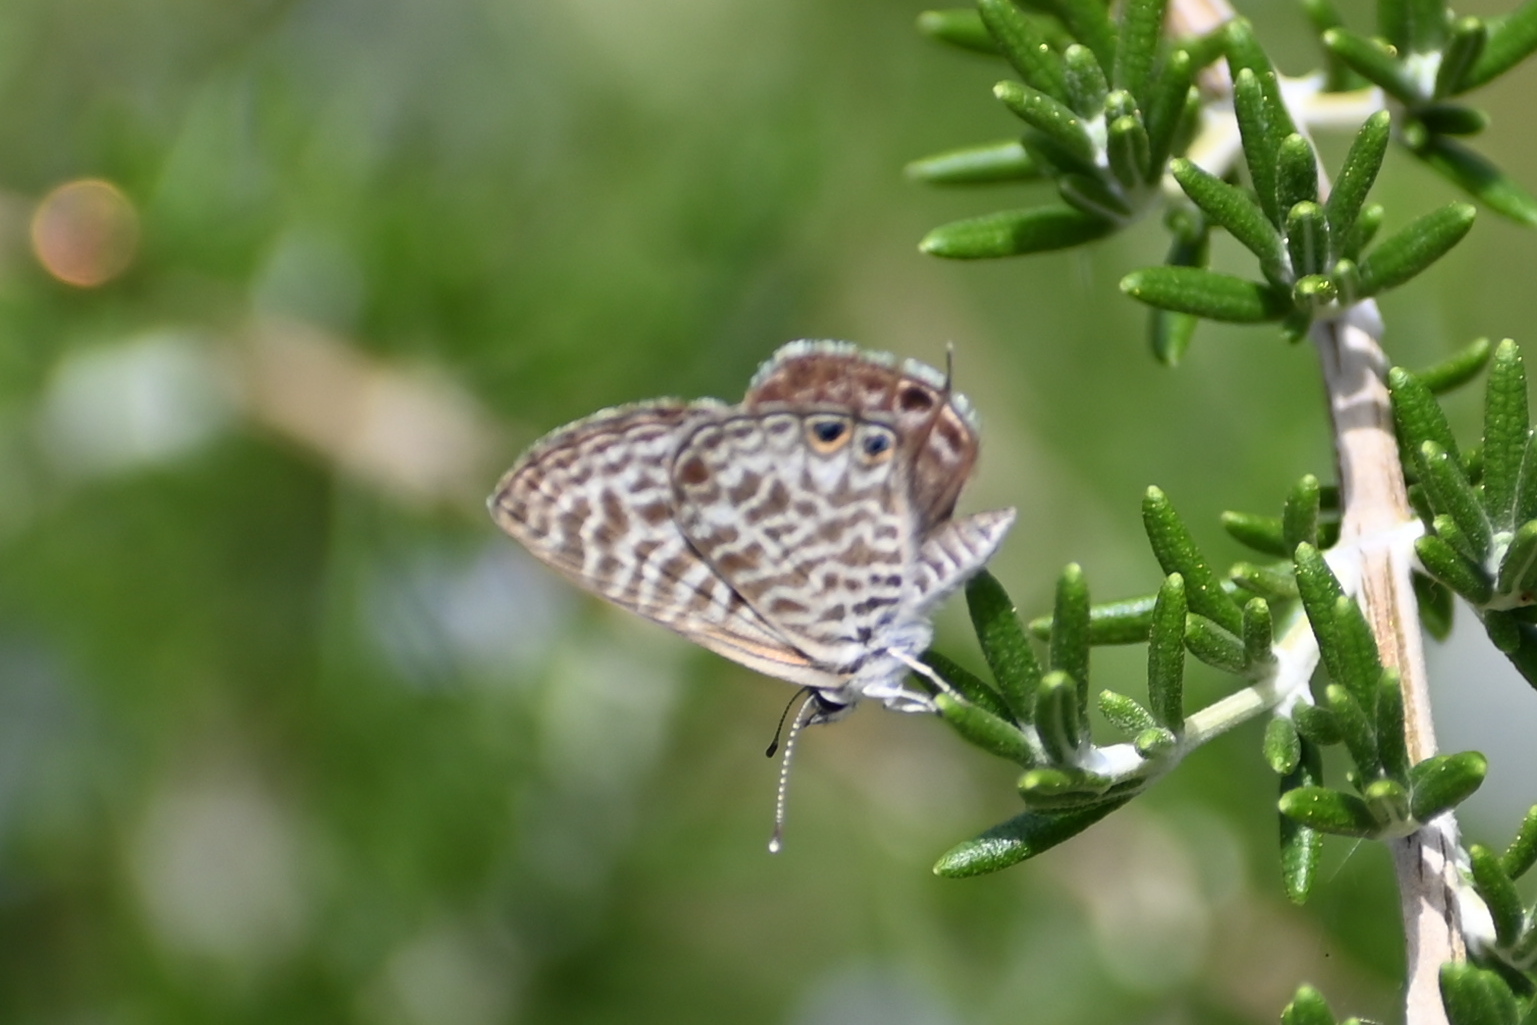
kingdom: Animalia
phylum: Arthropoda
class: Insecta
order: Lepidoptera
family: Lycaenidae
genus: Leptotes
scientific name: Leptotes pirithous
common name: Lang's short-tailed blue
